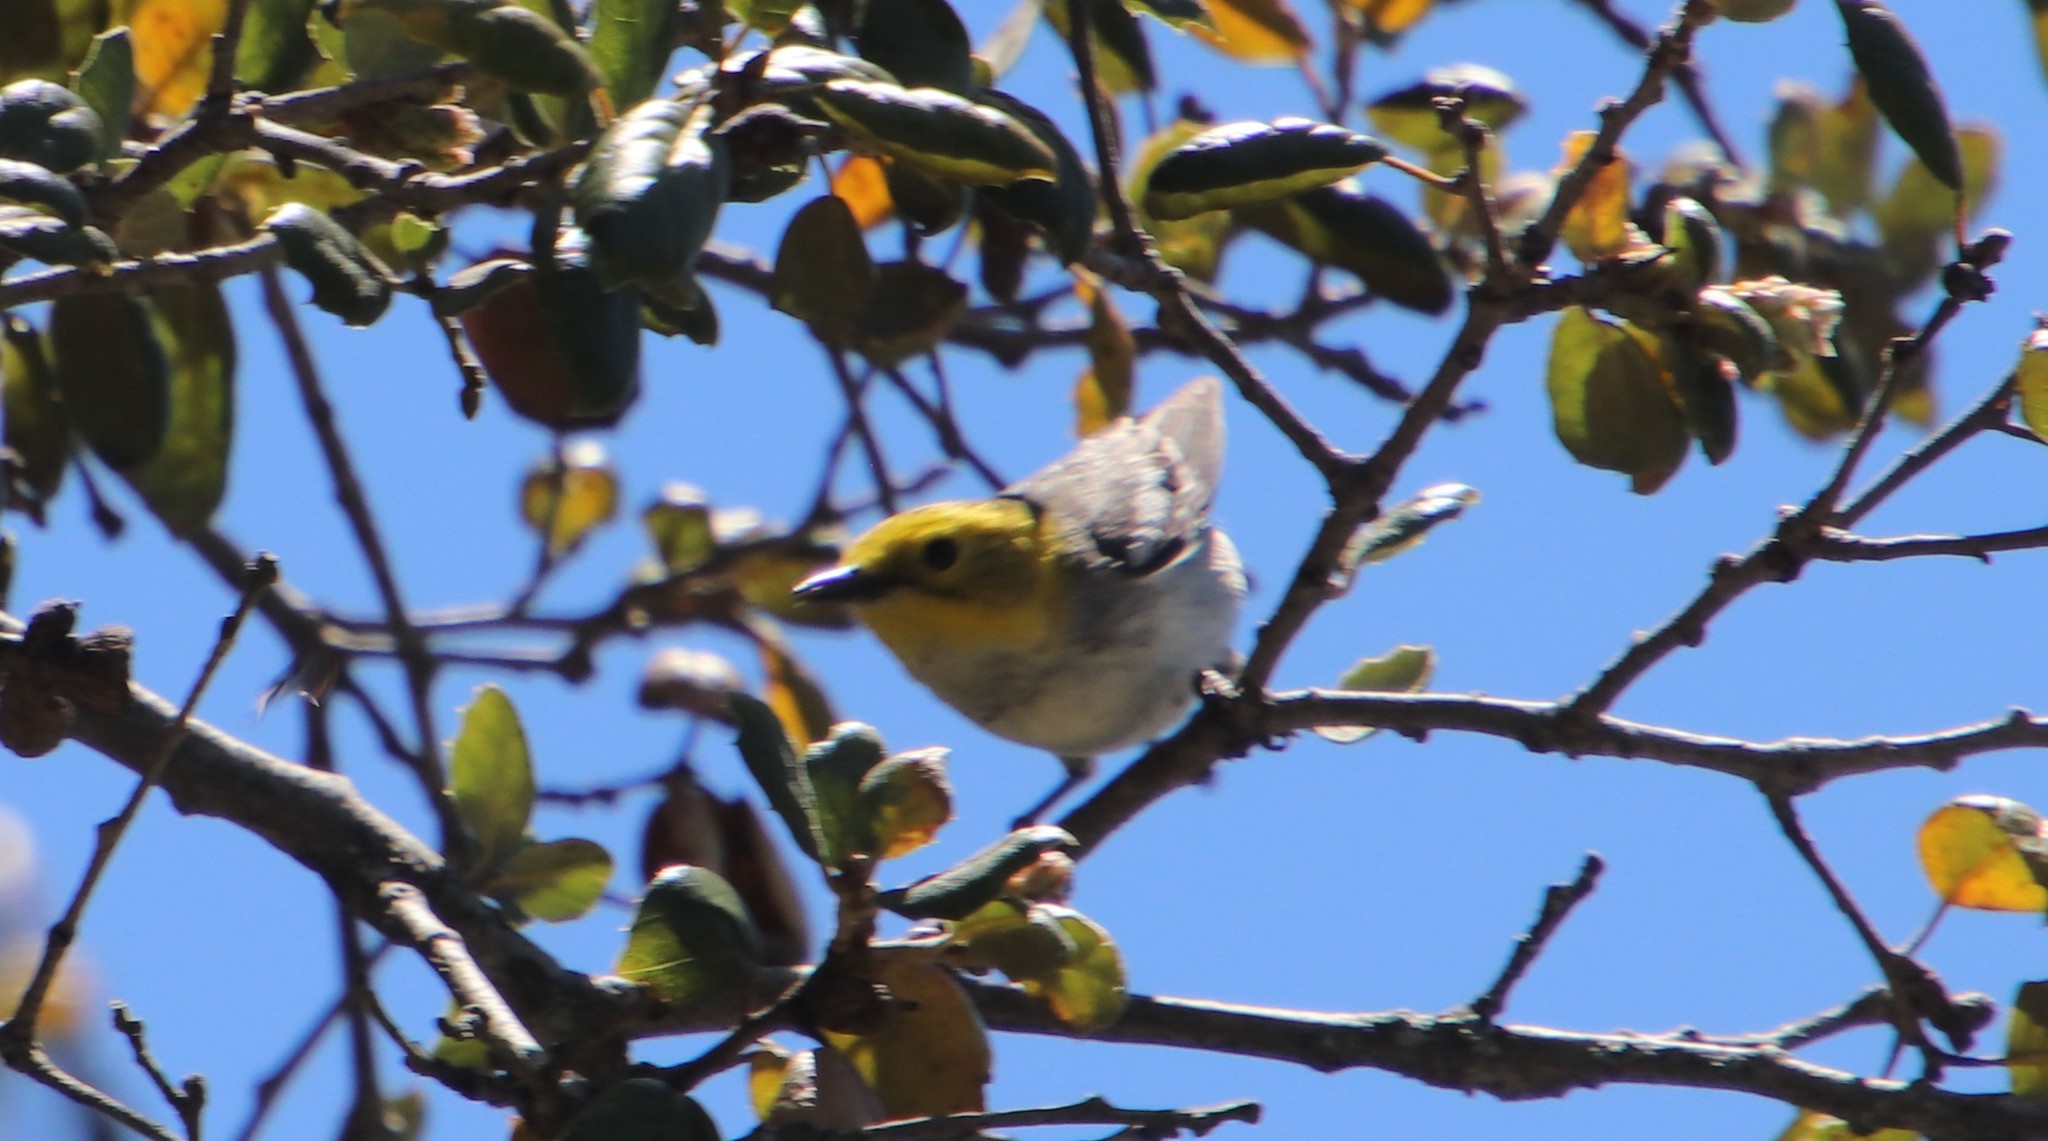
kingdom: Animalia
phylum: Chordata
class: Aves
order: Passeriformes
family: Parulidae
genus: Setophaga
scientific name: Setophaga occidentalis
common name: Hermit warbler
